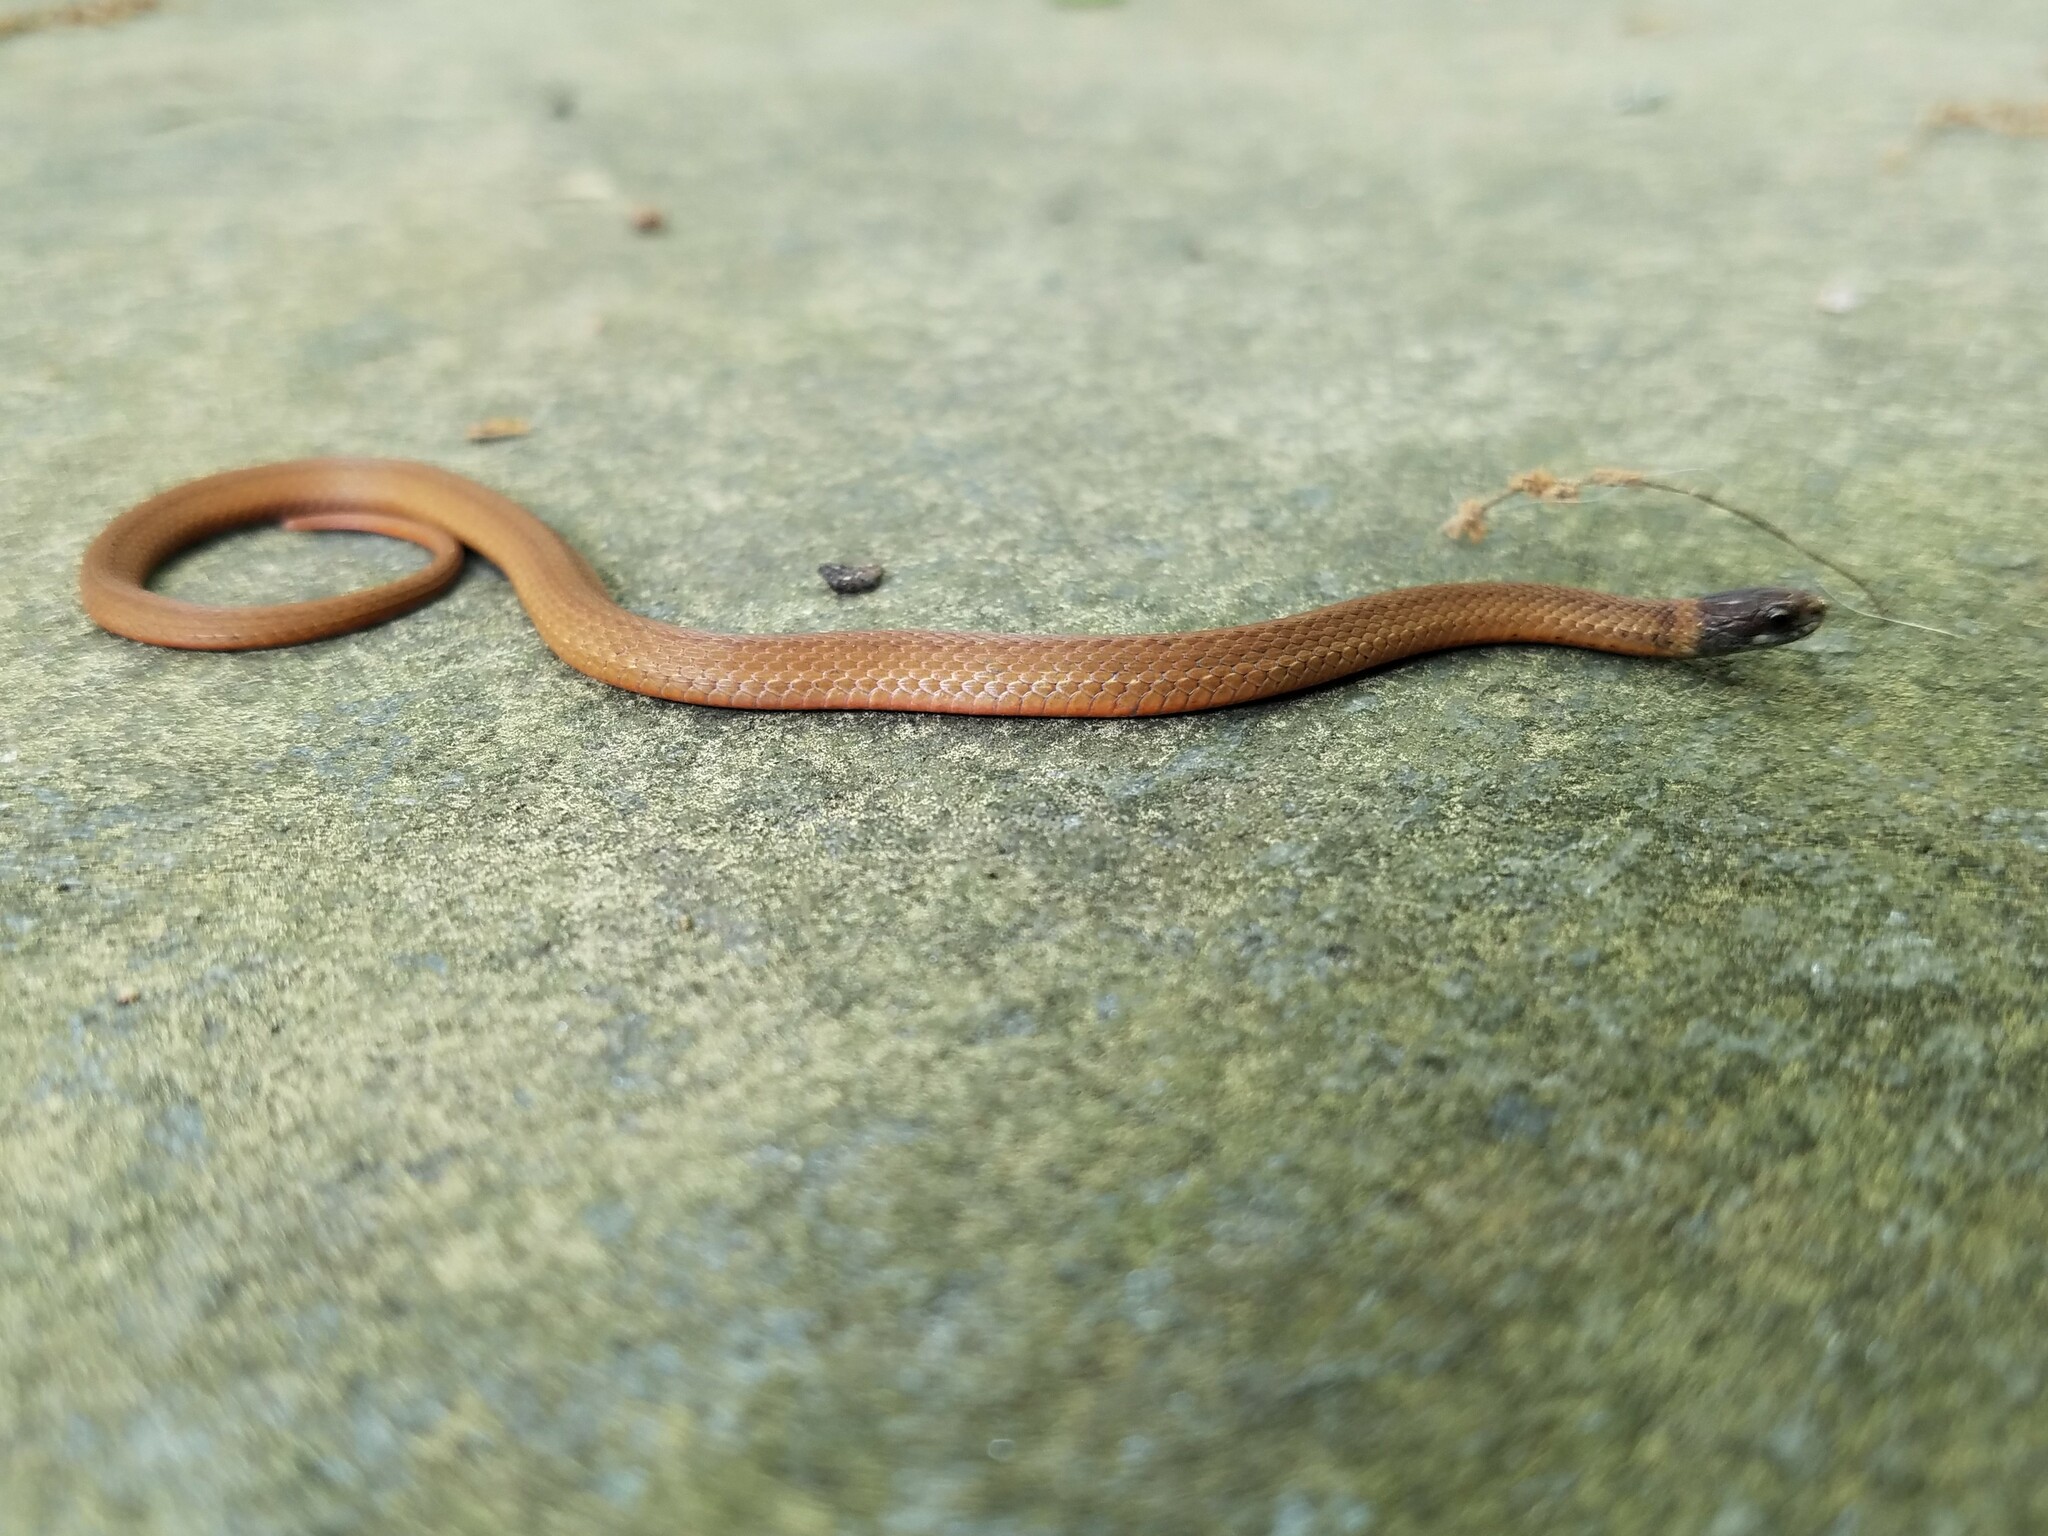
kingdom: Animalia
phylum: Chordata
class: Squamata
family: Colubridae
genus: Storeria
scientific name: Storeria occipitomaculata
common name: Redbelly snake
